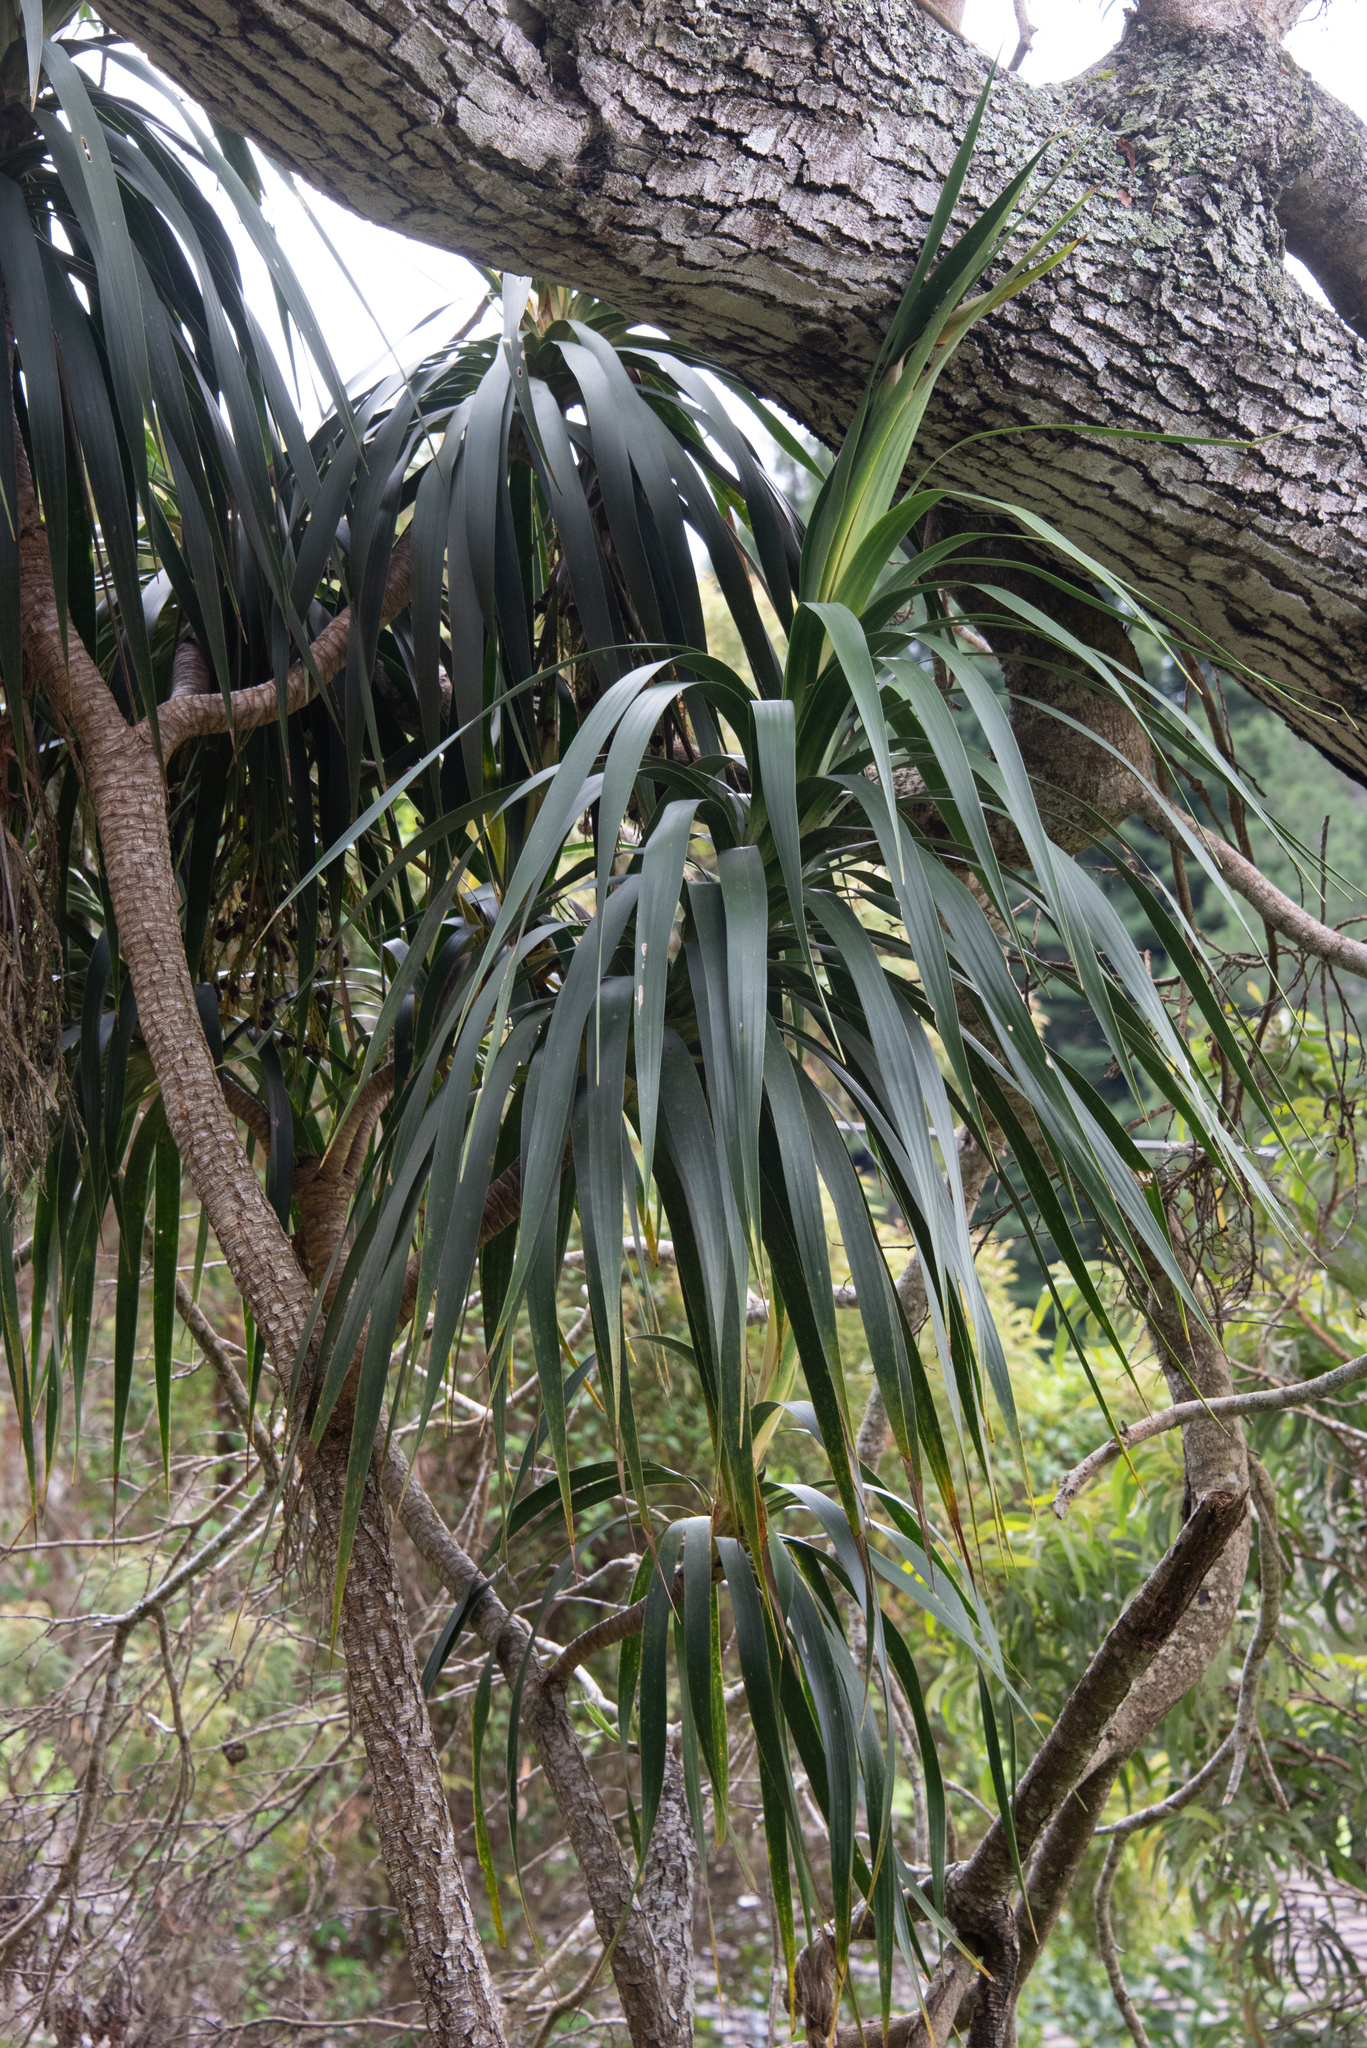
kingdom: Plantae
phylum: Tracheophyta
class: Liliopsida
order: Asparagales
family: Asparagaceae
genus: Dracaena
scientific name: Dracaena aurea
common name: Golden dracaena
